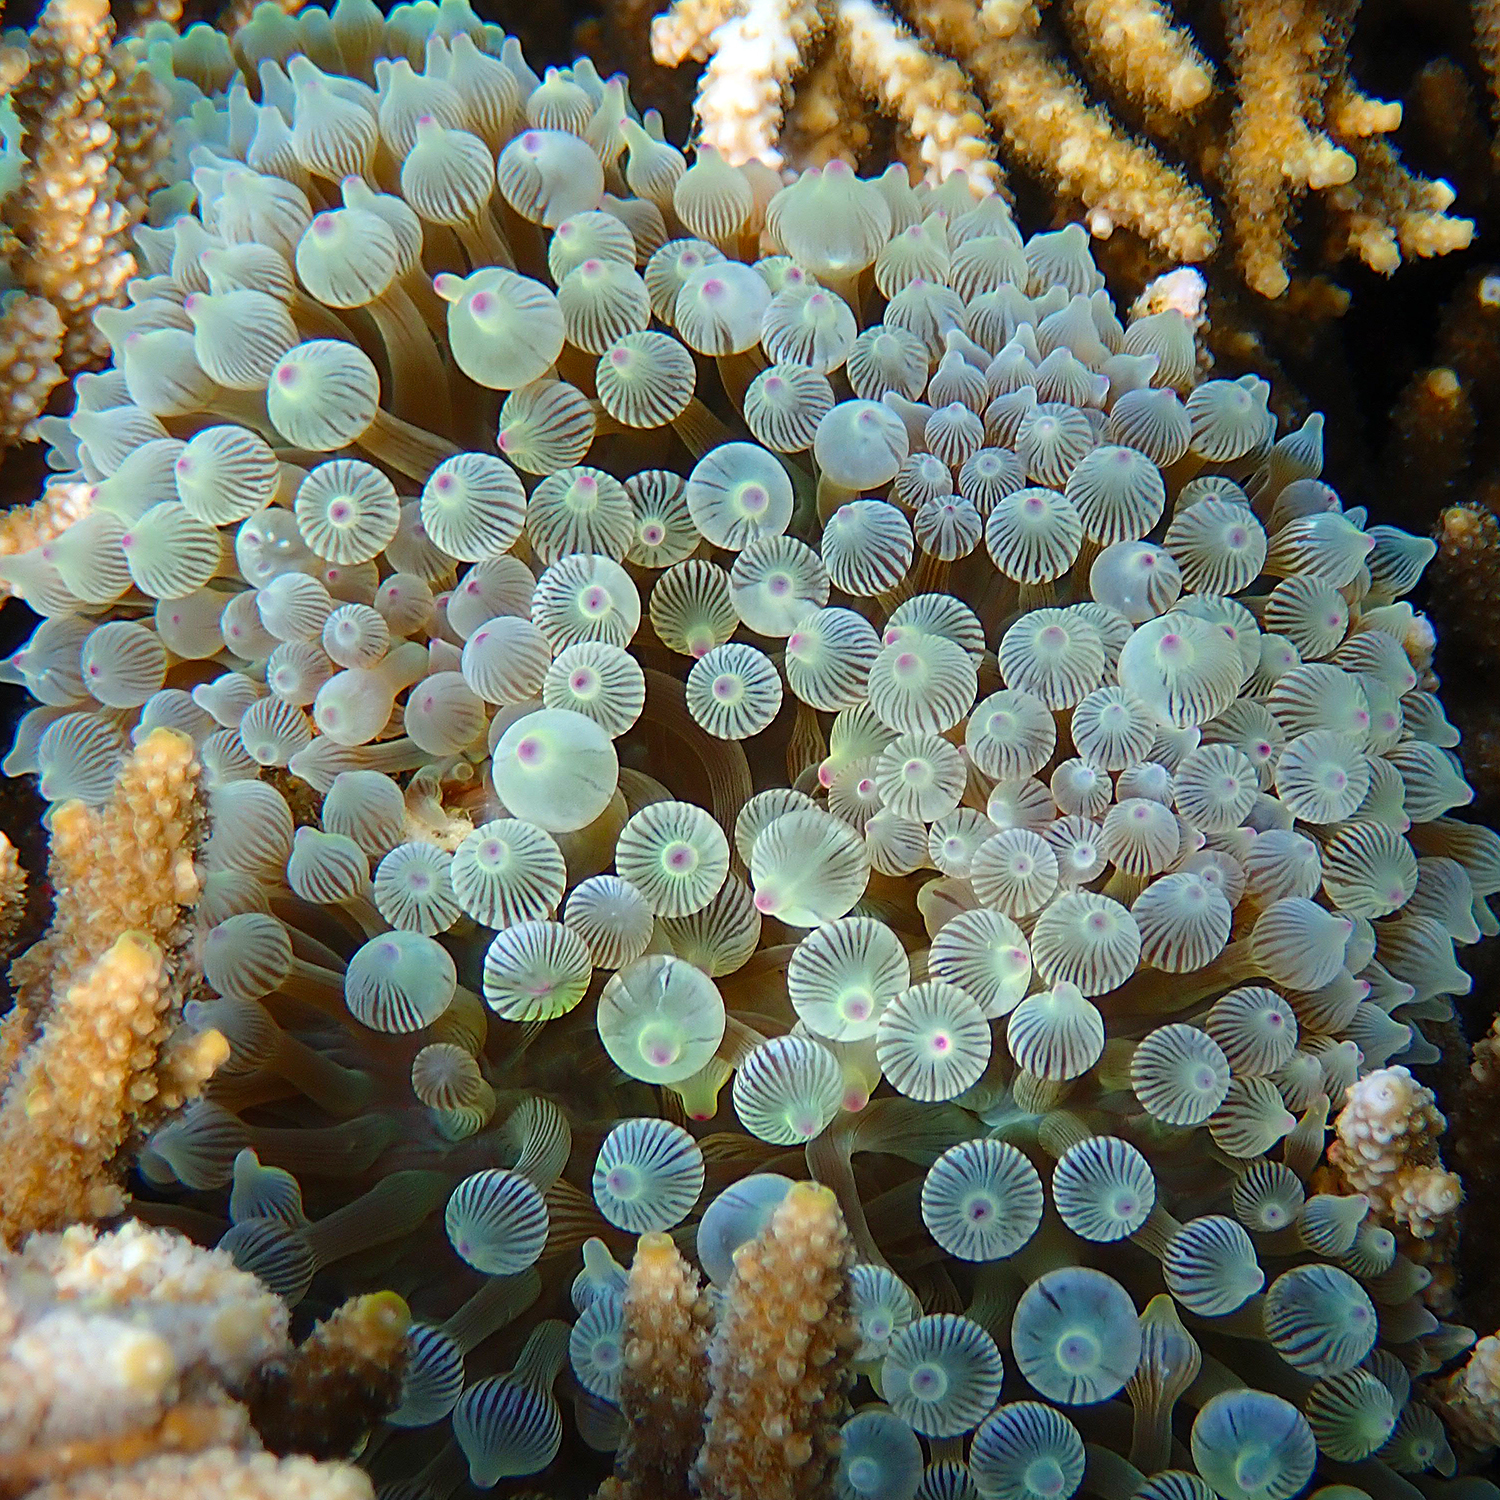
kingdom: Animalia
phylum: Cnidaria
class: Anthozoa
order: Actiniaria
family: Actiniidae
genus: Entacmaea
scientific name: Entacmaea quadricolor
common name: Bulb tentacle sea anemone
